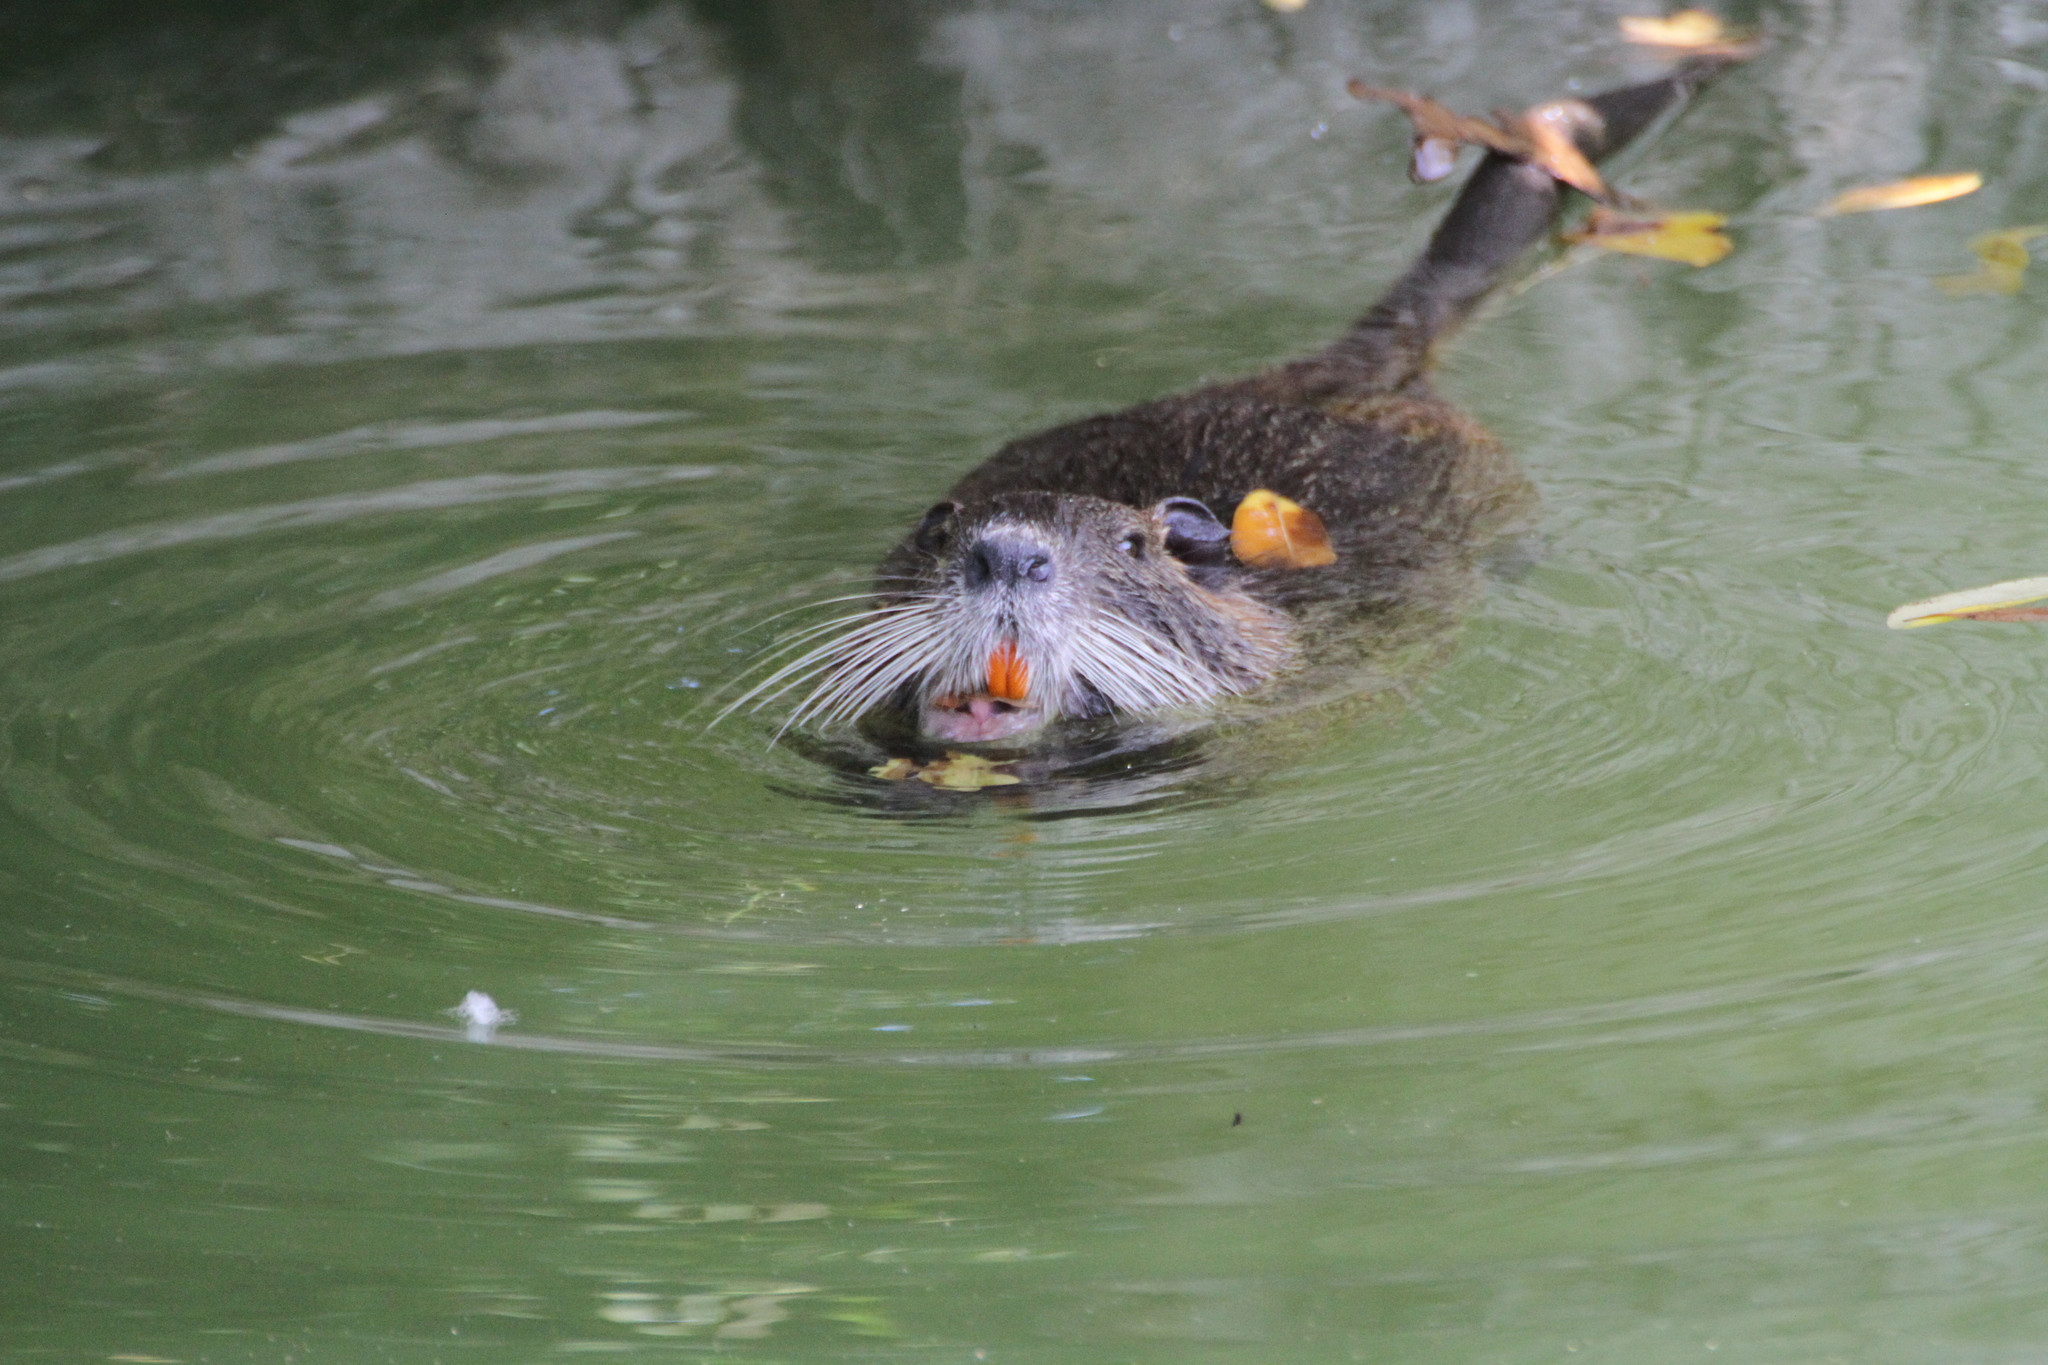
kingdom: Animalia
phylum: Chordata
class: Mammalia
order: Rodentia
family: Myocastoridae
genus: Myocastor
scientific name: Myocastor coypus
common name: Coypu
